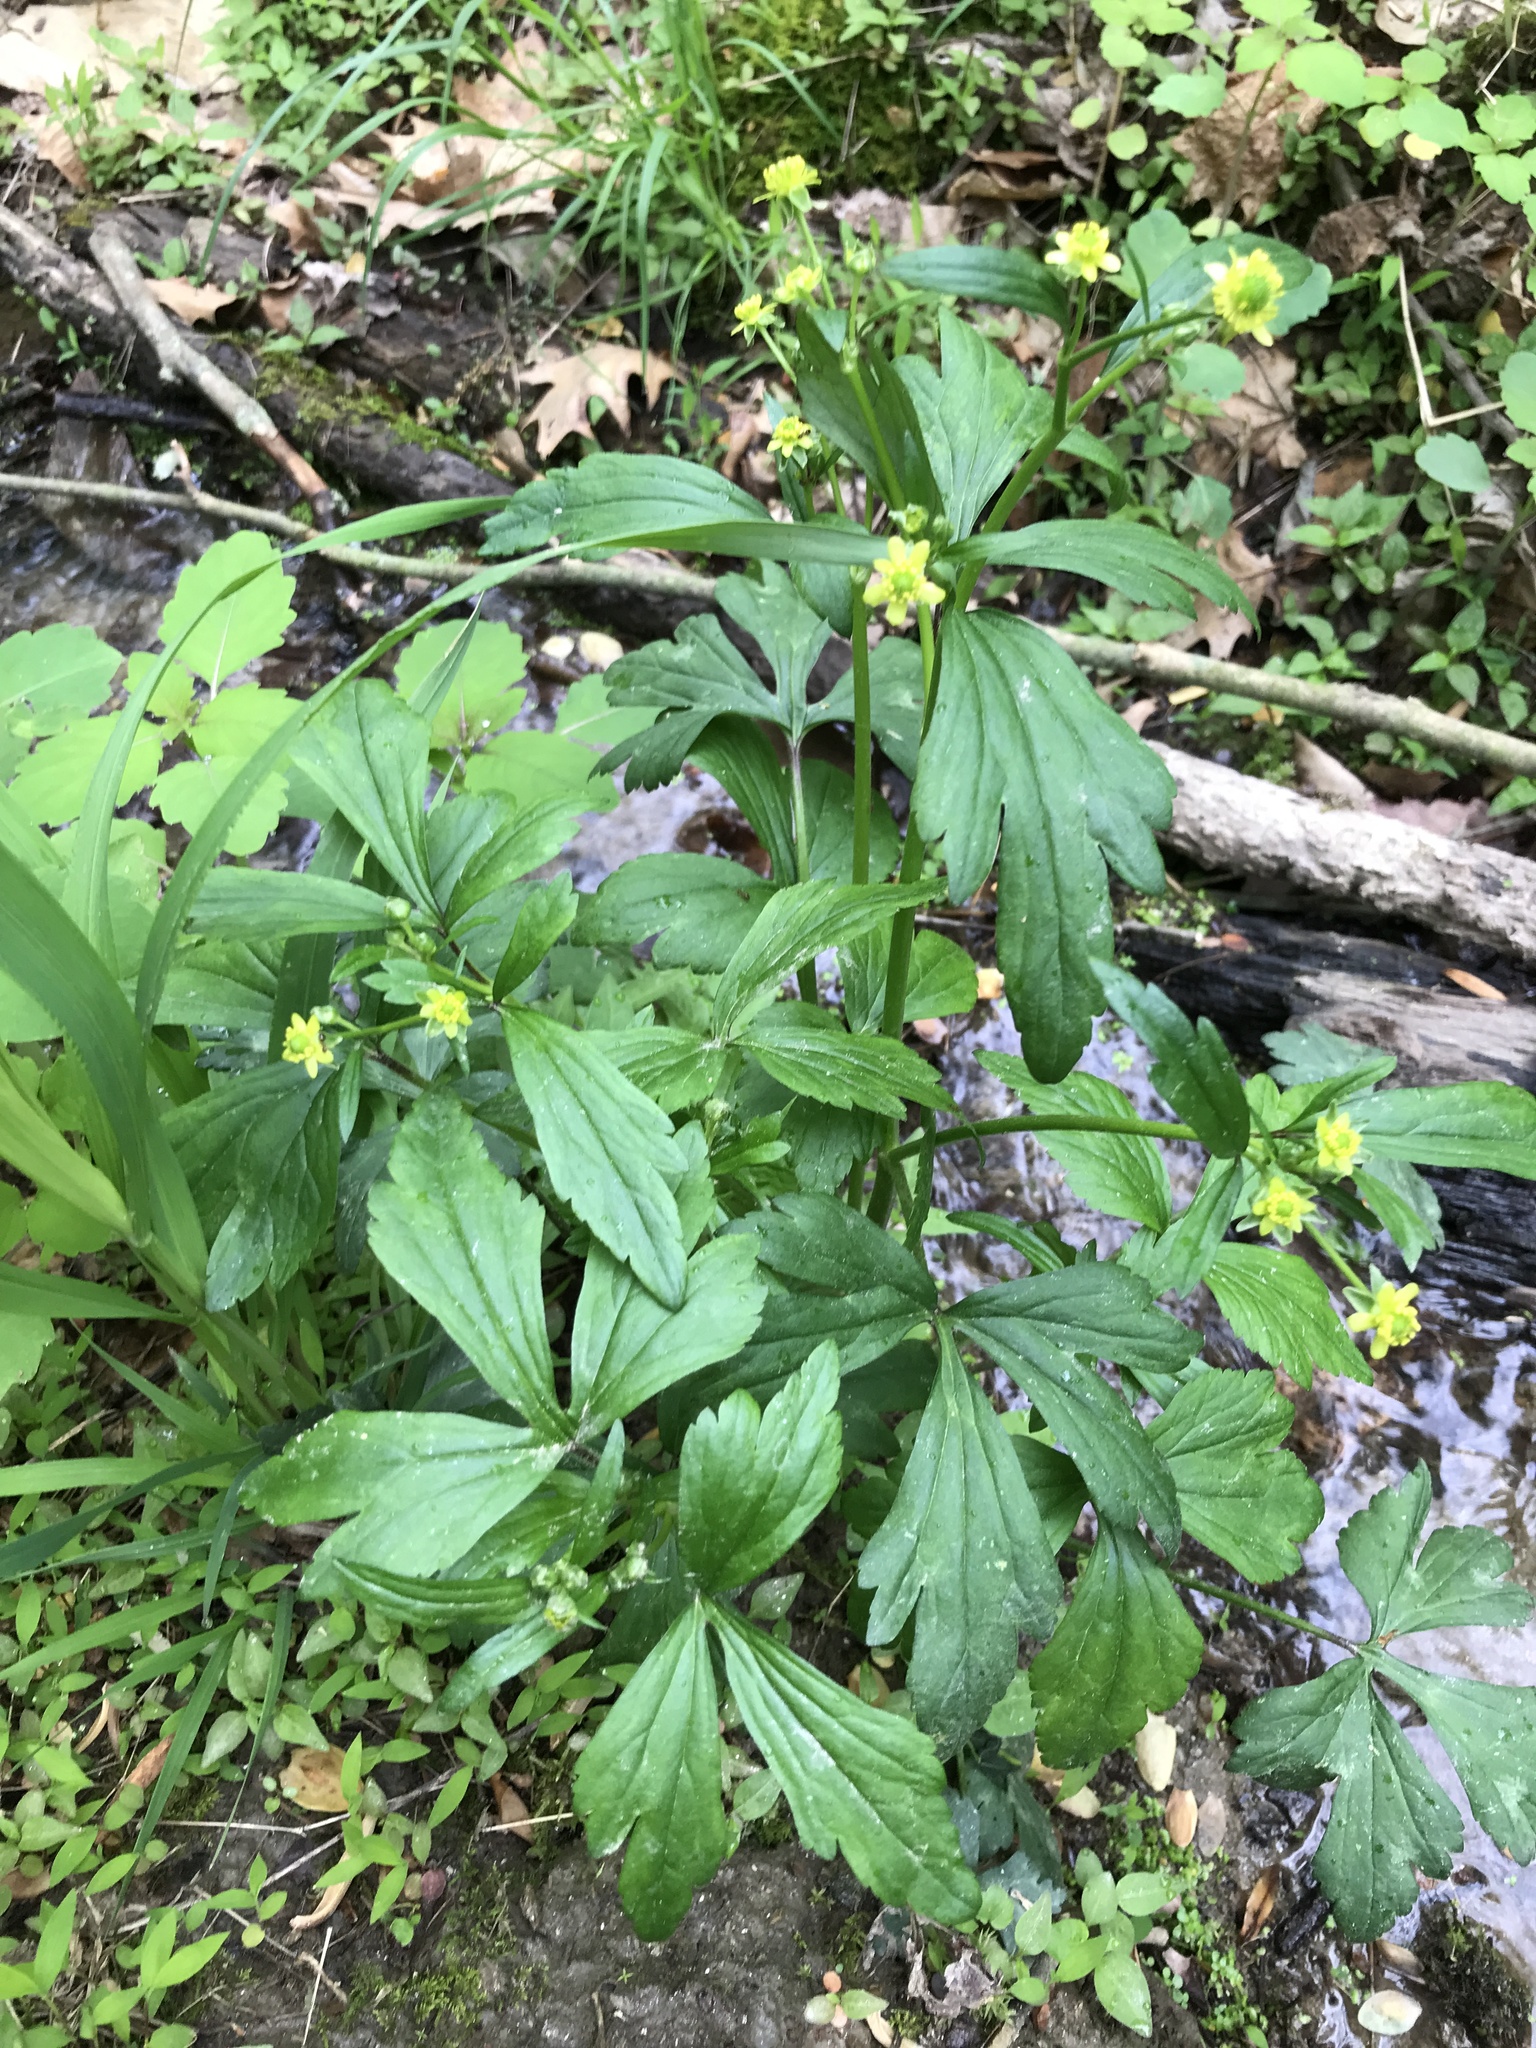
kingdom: Plantae
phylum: Tracheophyta
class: Magnoliopsida
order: Ranunculales
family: Ranunculaceae
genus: Ranunculus
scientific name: Ranunculus recurvatus
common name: Blisterwort
